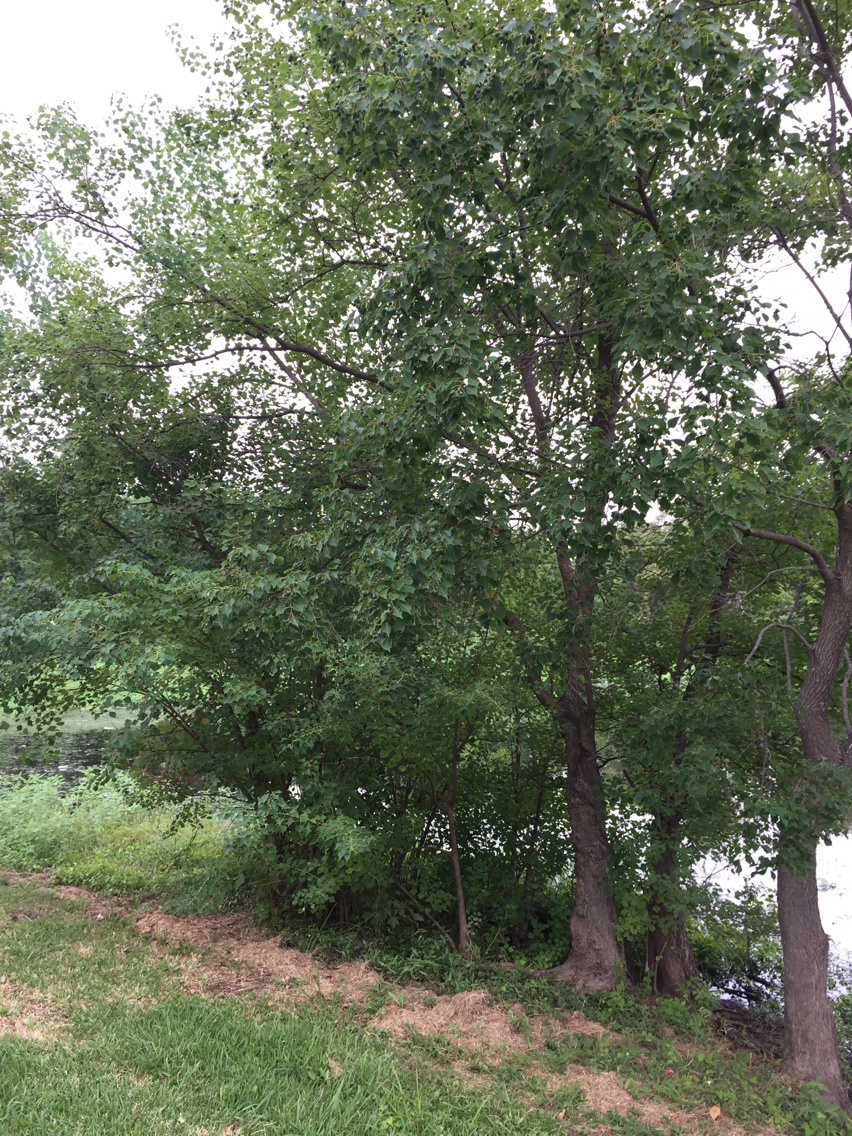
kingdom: Plantae
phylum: Tracheophyta
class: Magnoliopsida
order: Malpighiales
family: Euphorbiaceae
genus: Triadica
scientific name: Triadica sebifera
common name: Chinese tallow
